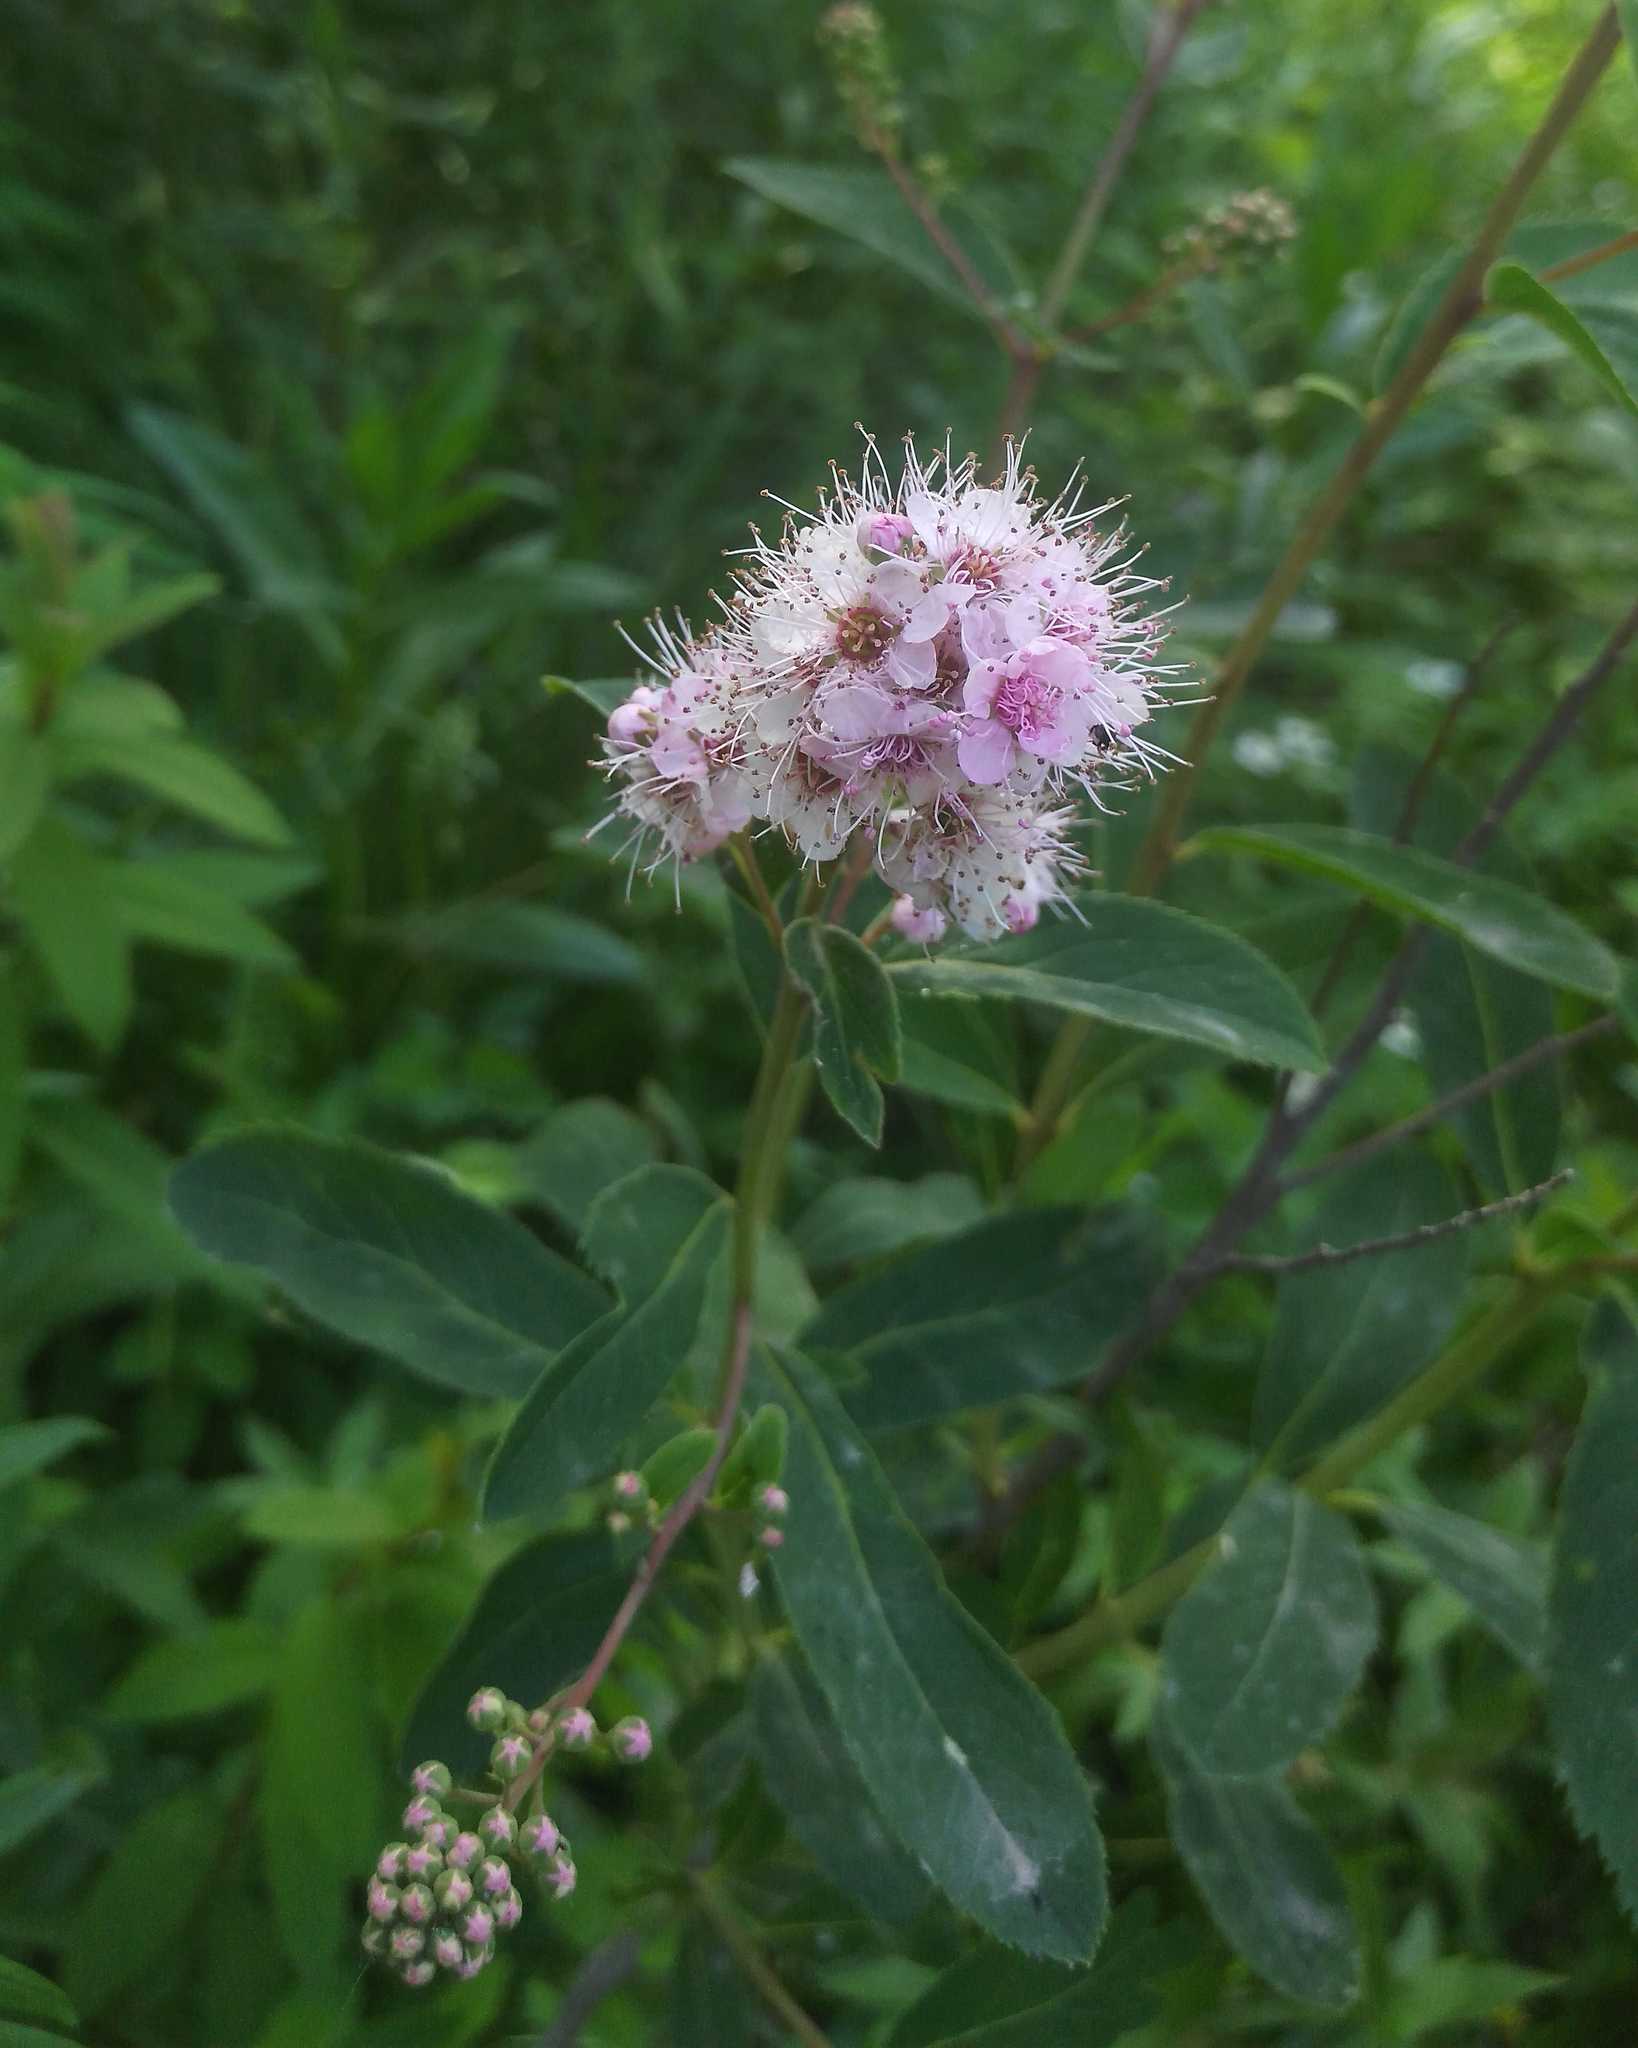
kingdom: Plantae
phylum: Tracheophyta
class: Magnoliopsida
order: Rosales
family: Rosaceae
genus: Spiraea
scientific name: Spiraea salicifolia
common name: Bridewort
